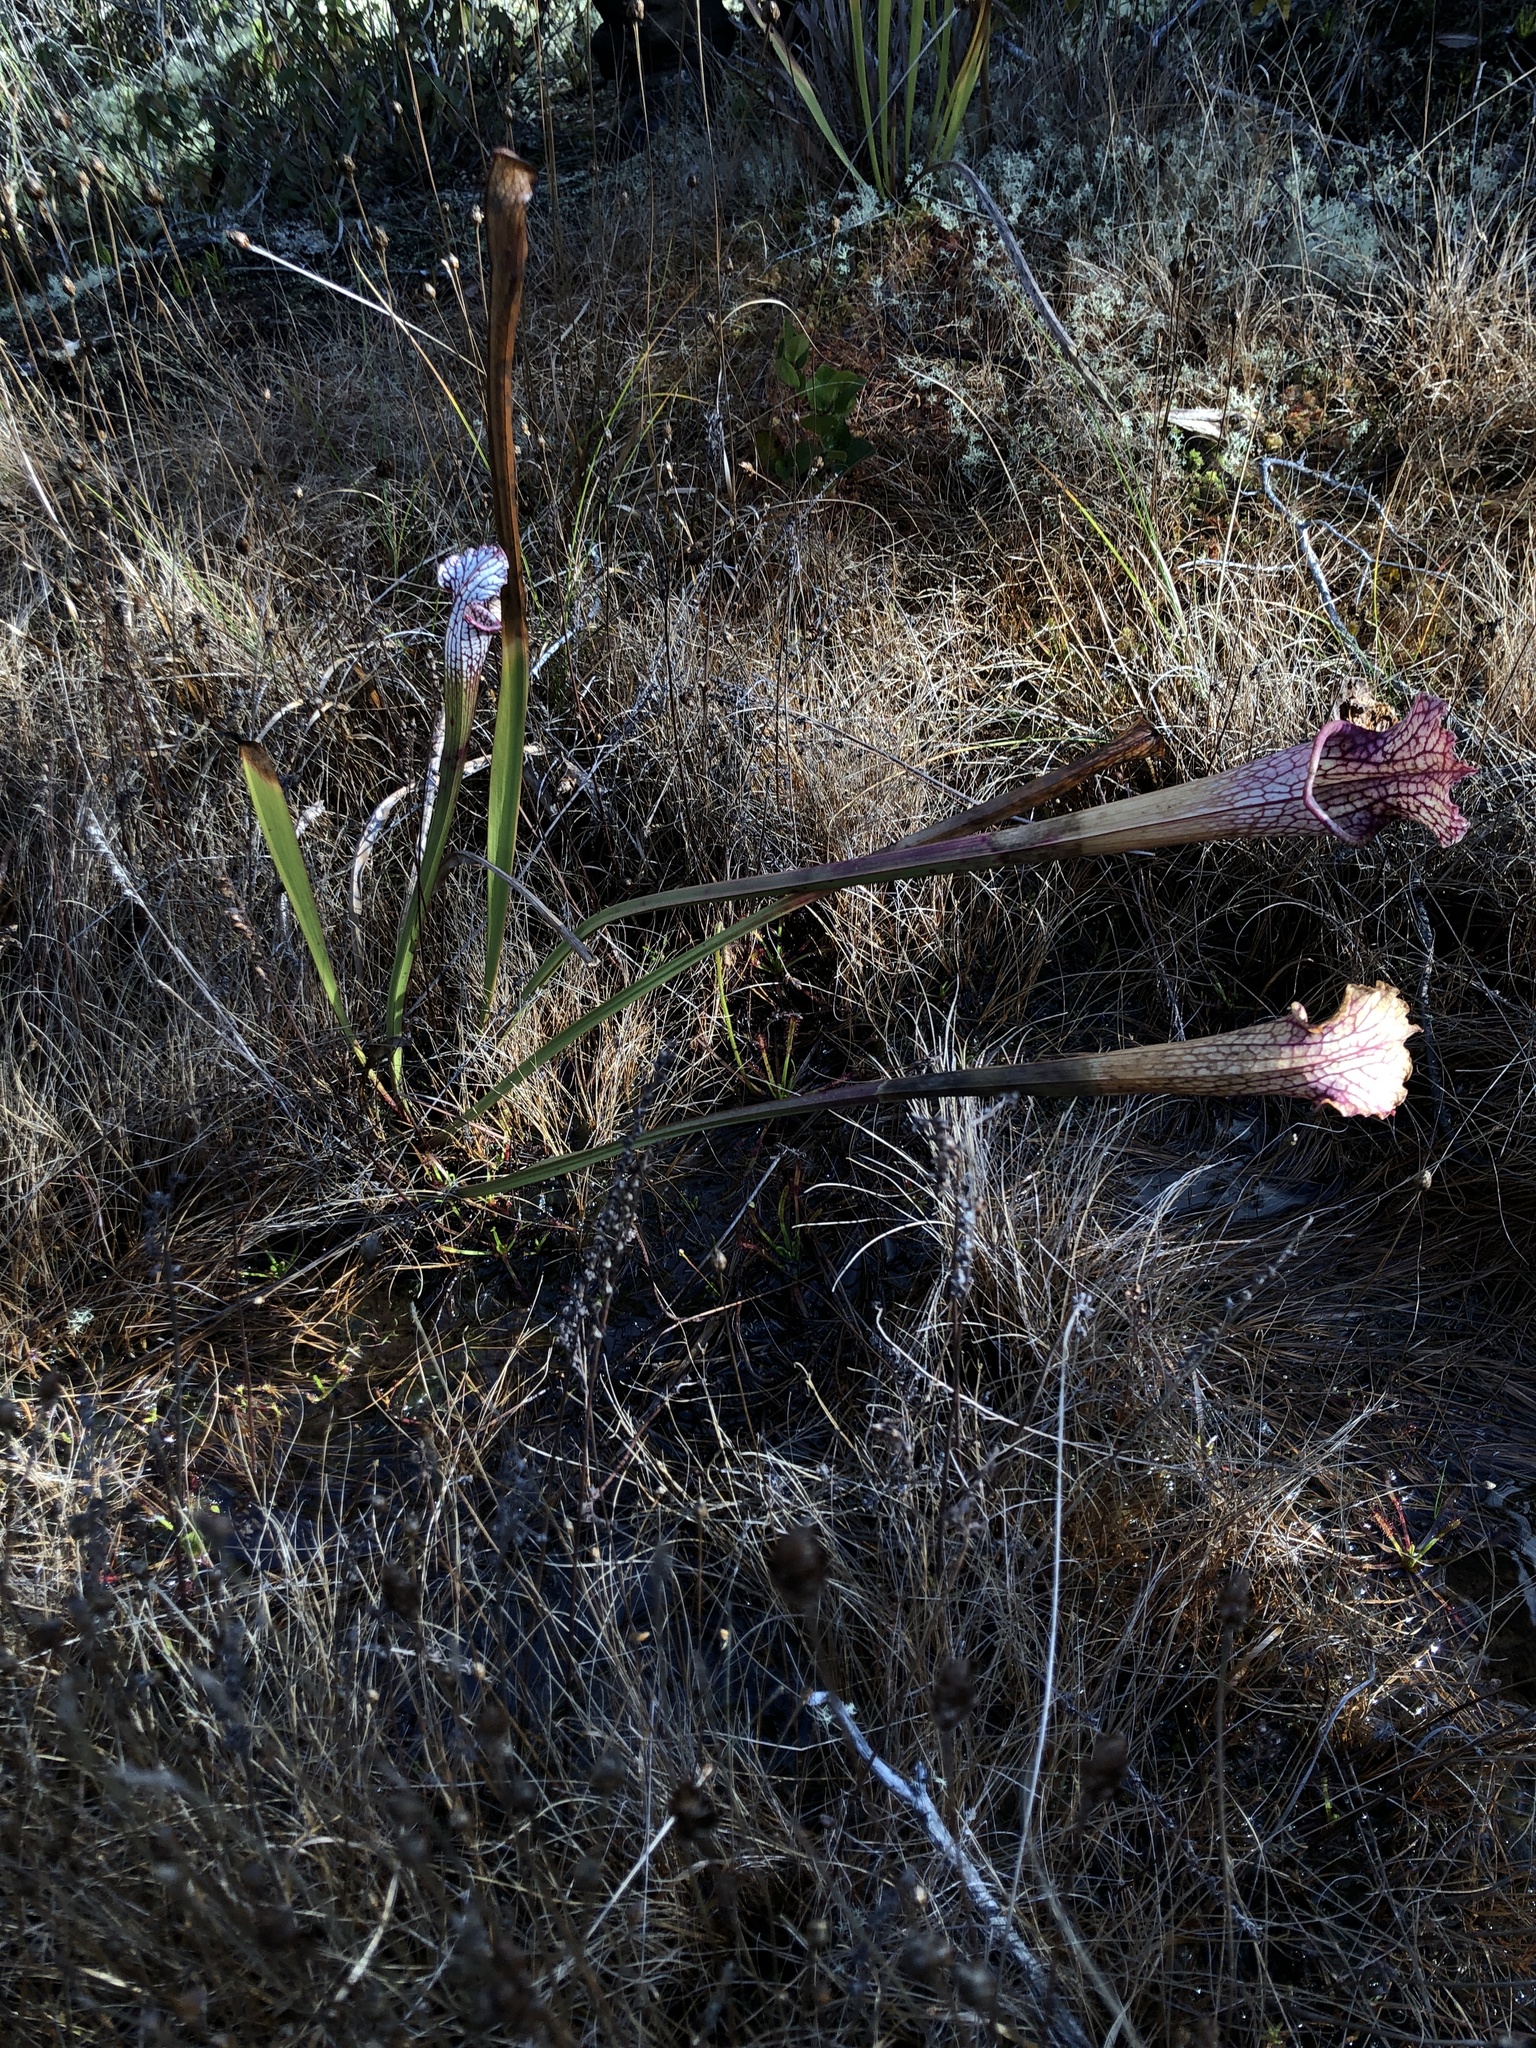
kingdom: Plantae
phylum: Tracheophyta
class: Magnoliopsida
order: Ericales
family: Sarraceniaceae
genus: Sarracenia
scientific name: Sarracenia leucophylla
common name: Purple trumpetleaf
